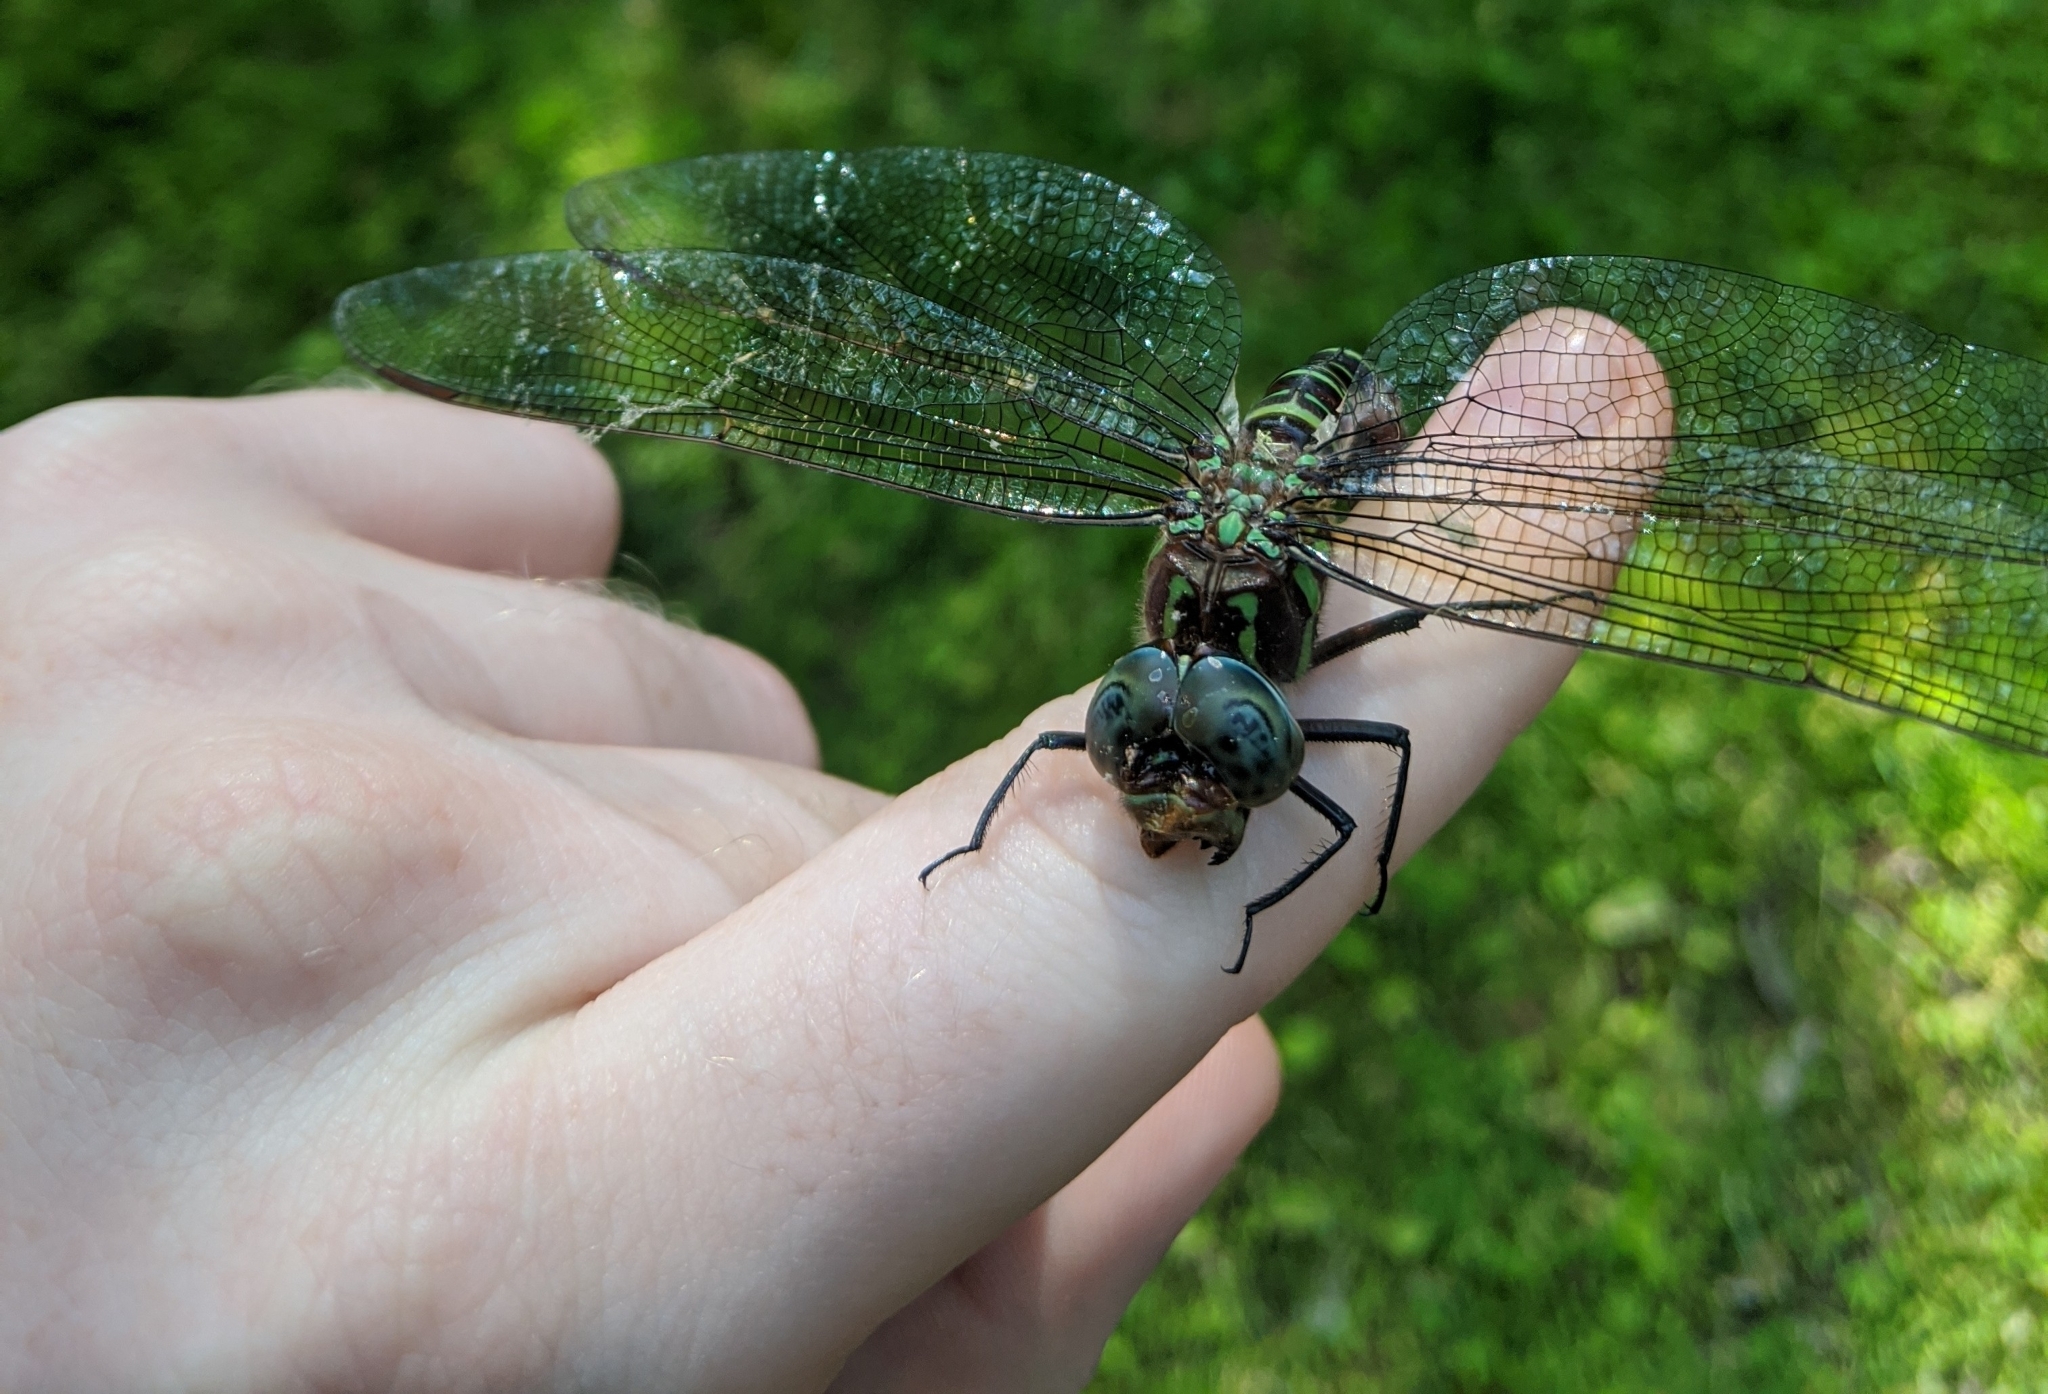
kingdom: Animalia
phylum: Arthropoda
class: Insecta
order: Odonata
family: Aeshnidae
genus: Epiaeschna
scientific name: Epiaeschna heros
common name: Swamp darner
